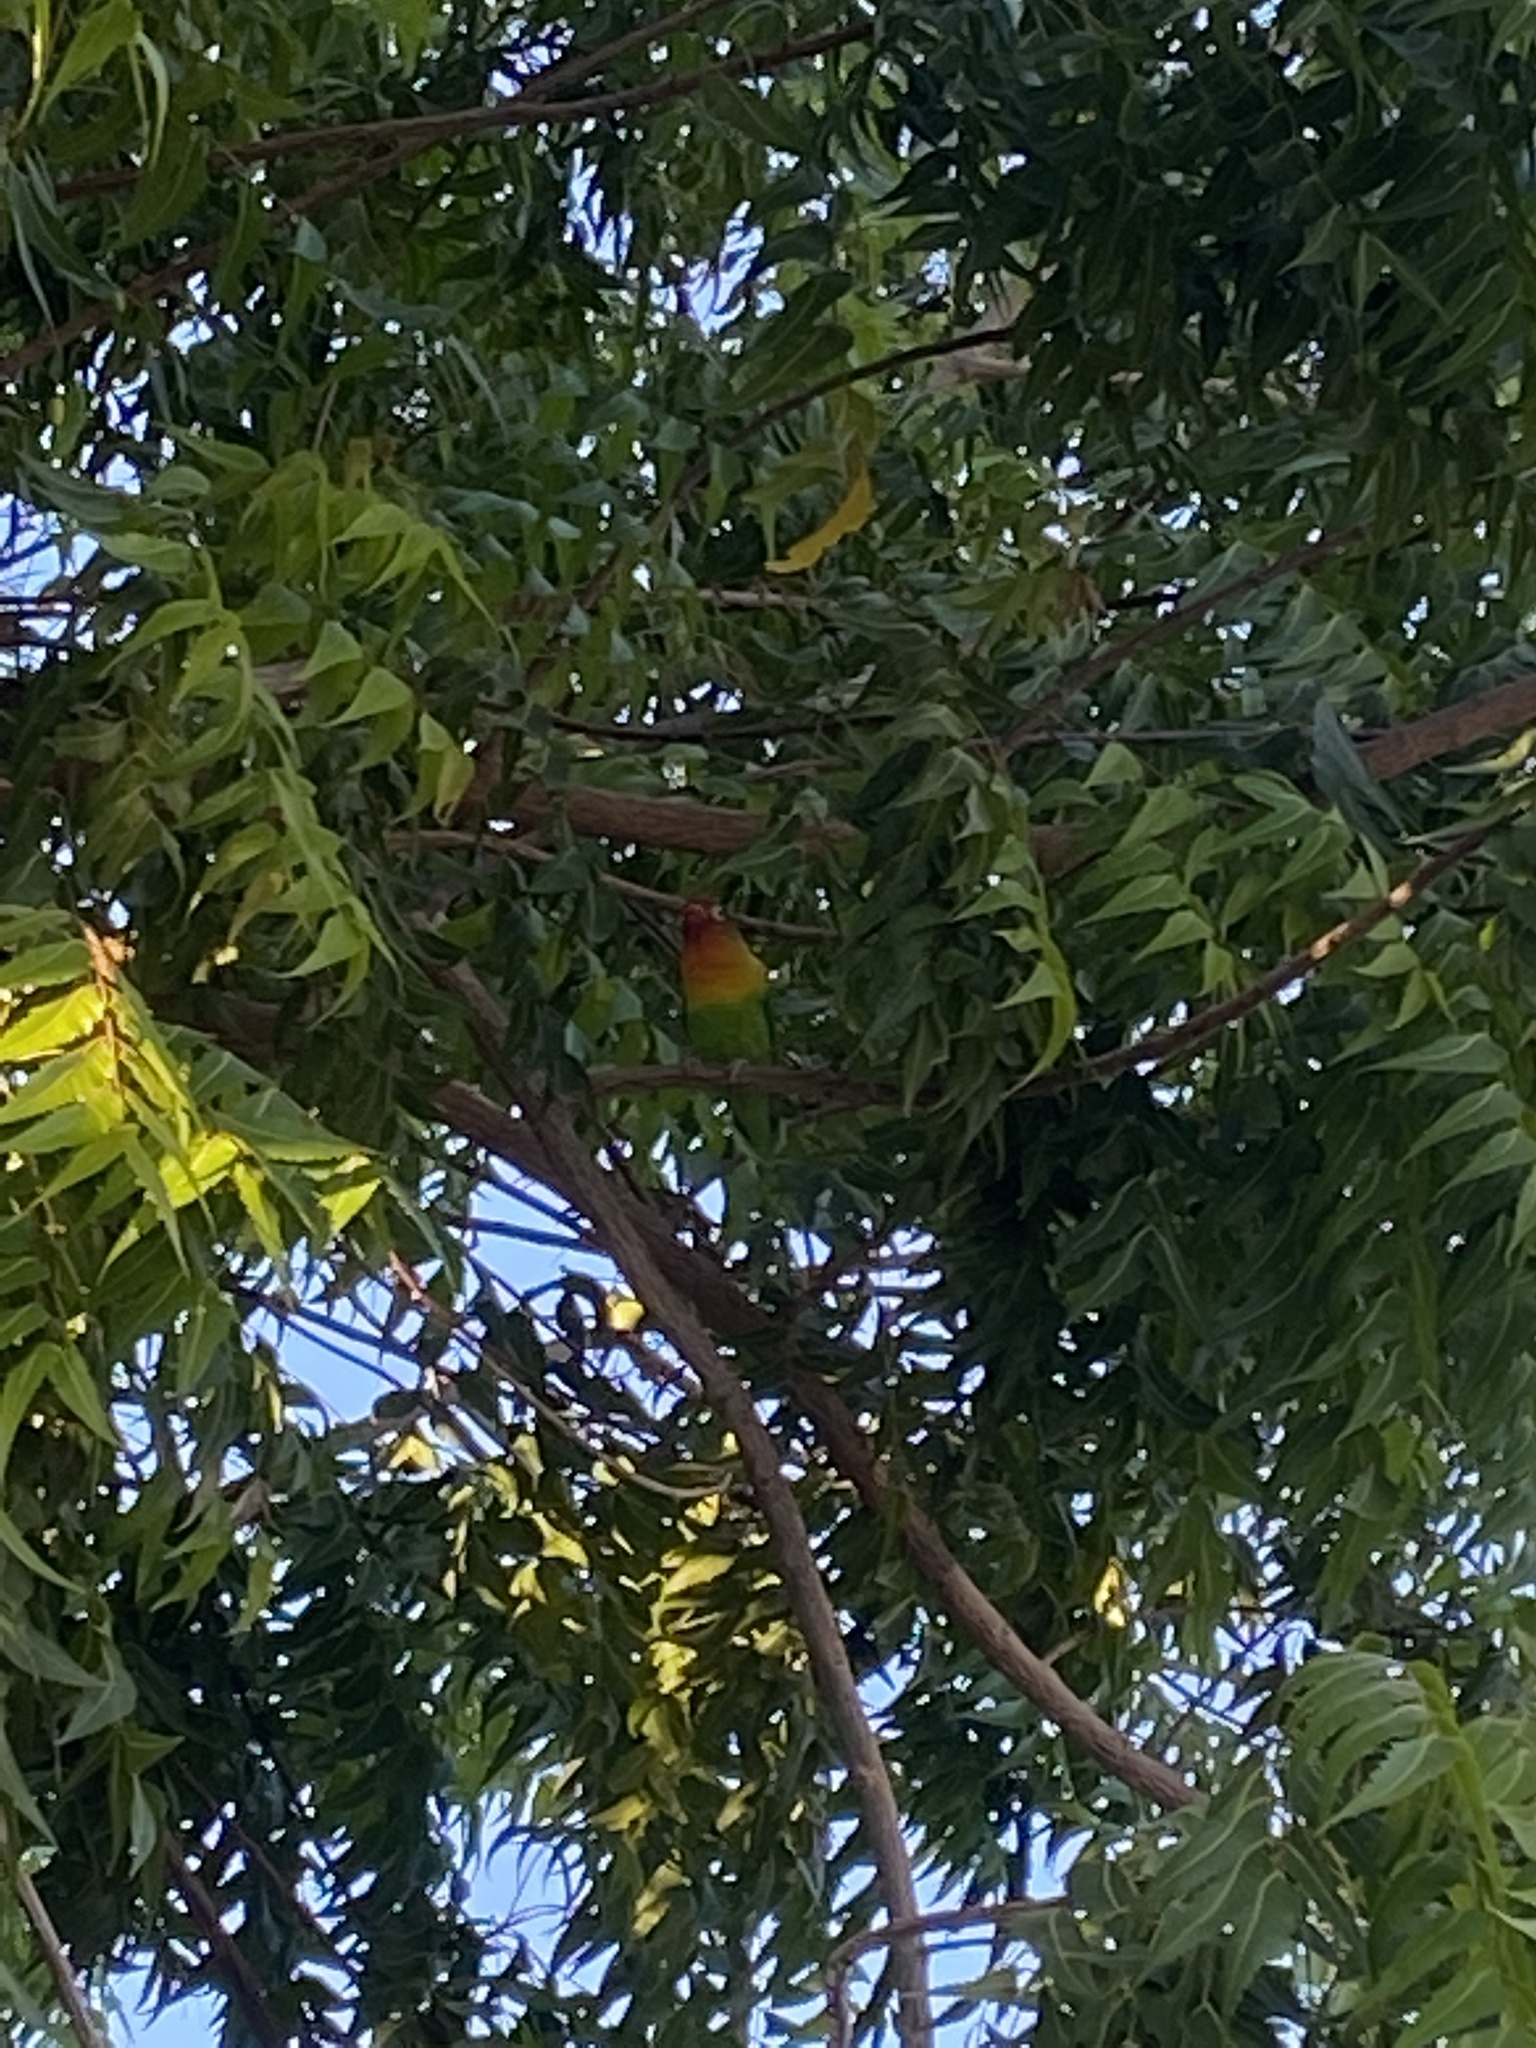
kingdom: Animalia
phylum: Chordata
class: Aves
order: Psittaciformes
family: Psittacidae
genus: Agapornis
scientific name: Agapornis
